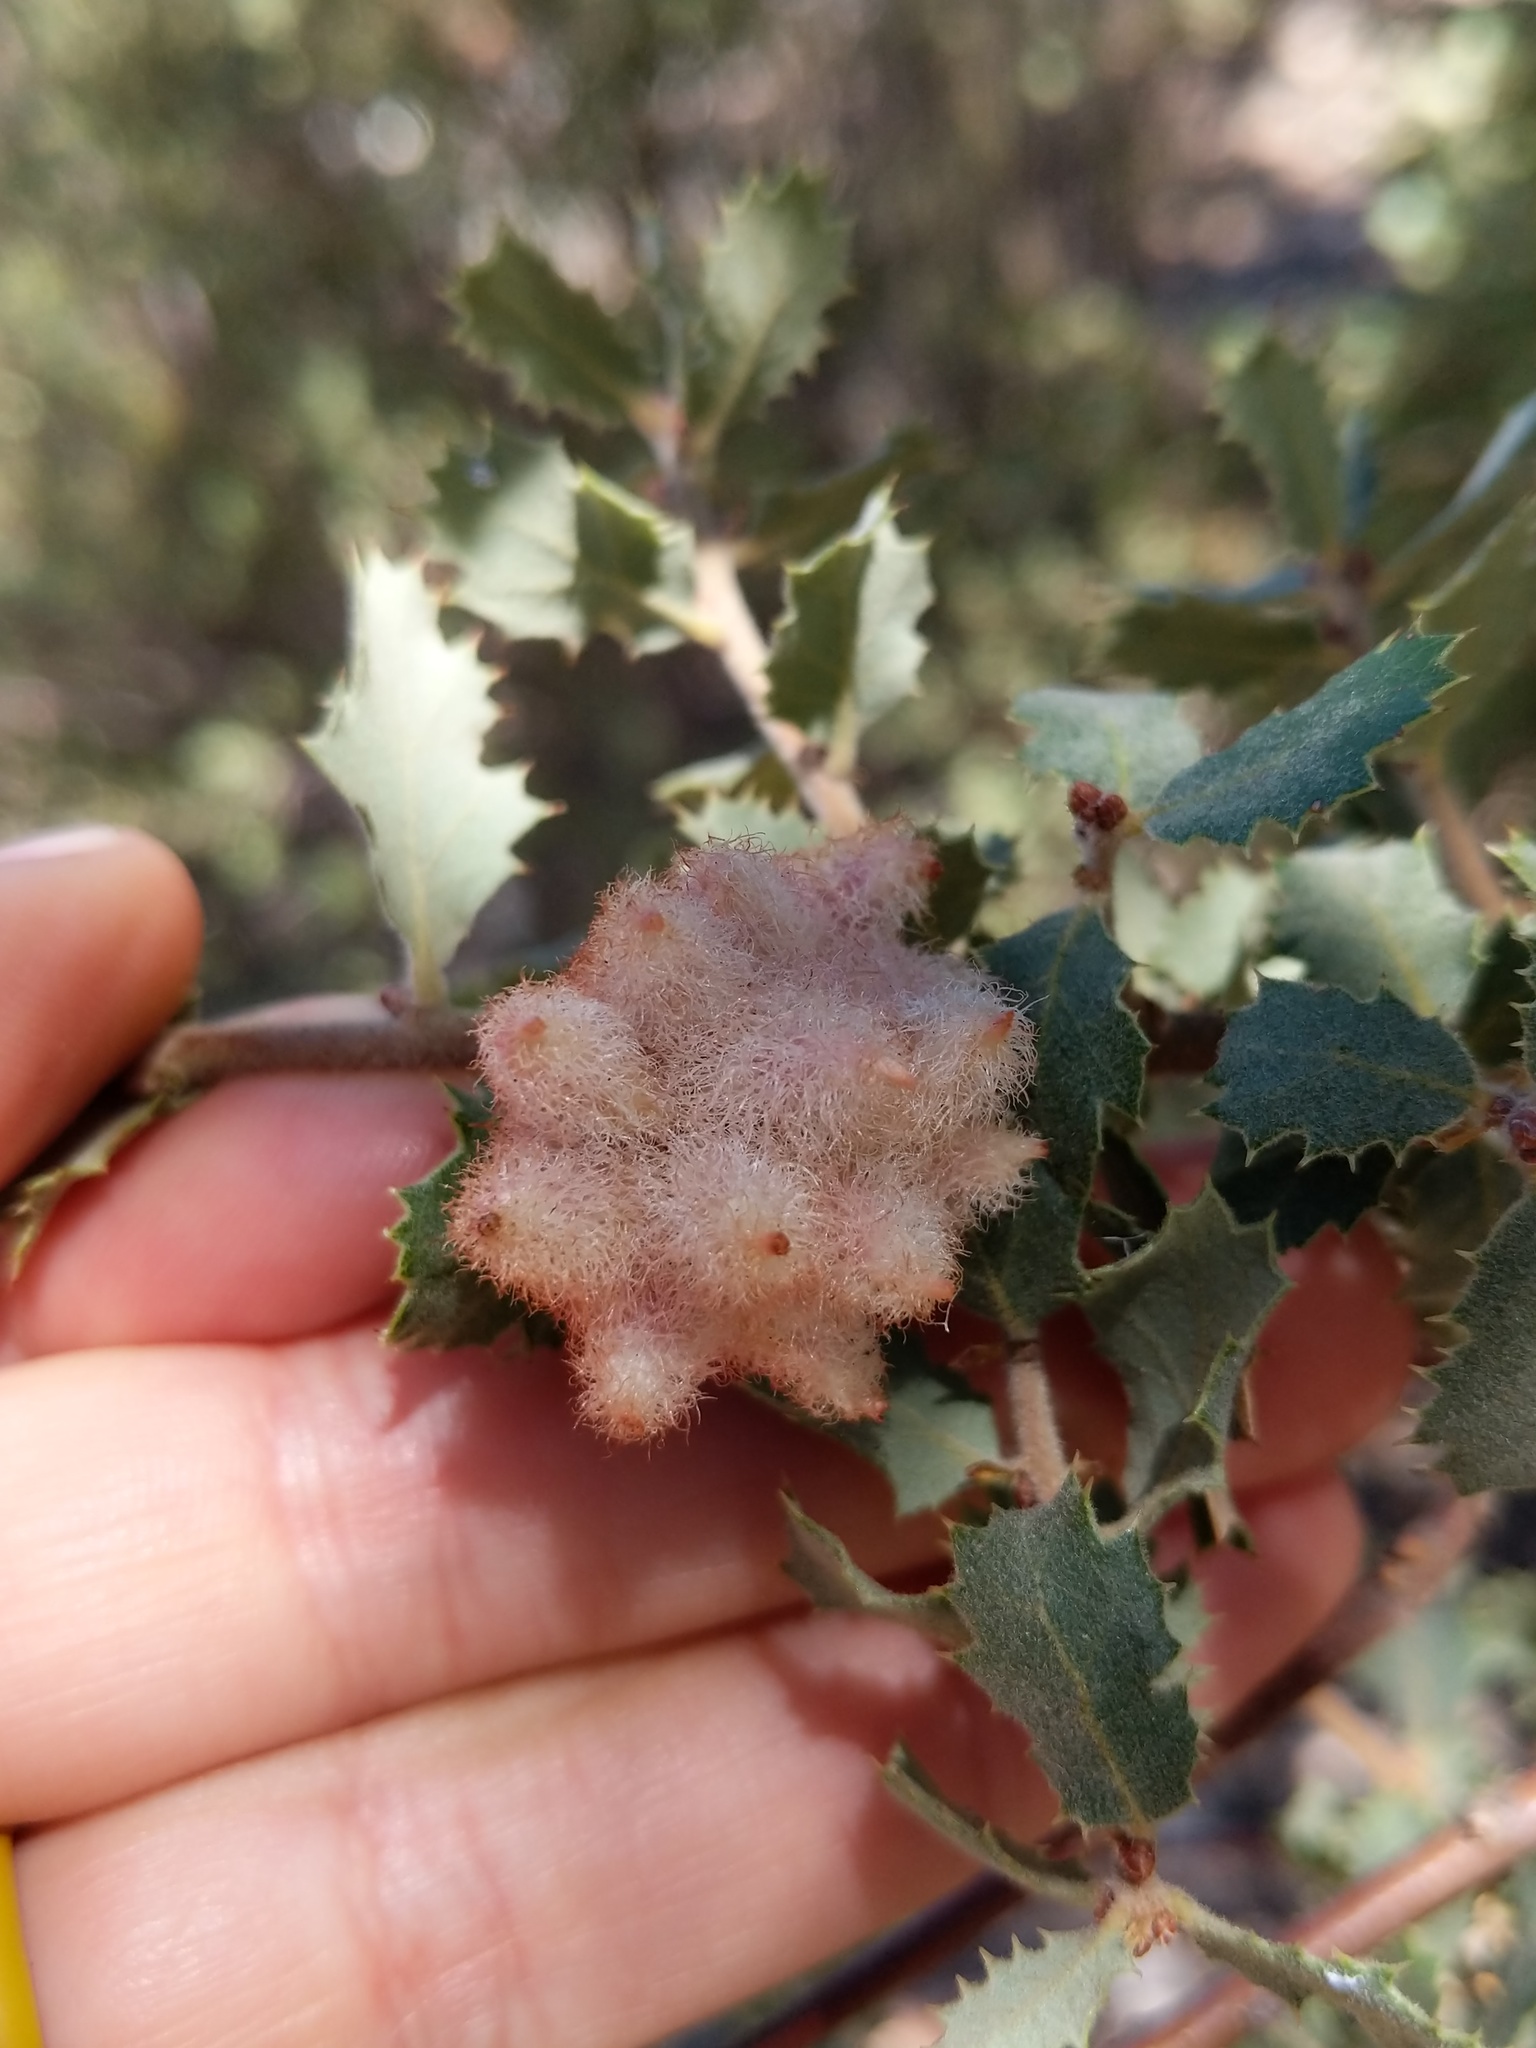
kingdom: Animalia
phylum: Arthropoda
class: Insecta
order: Hymenoptera
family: Cynipidae
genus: Andricus
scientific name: Andricus
